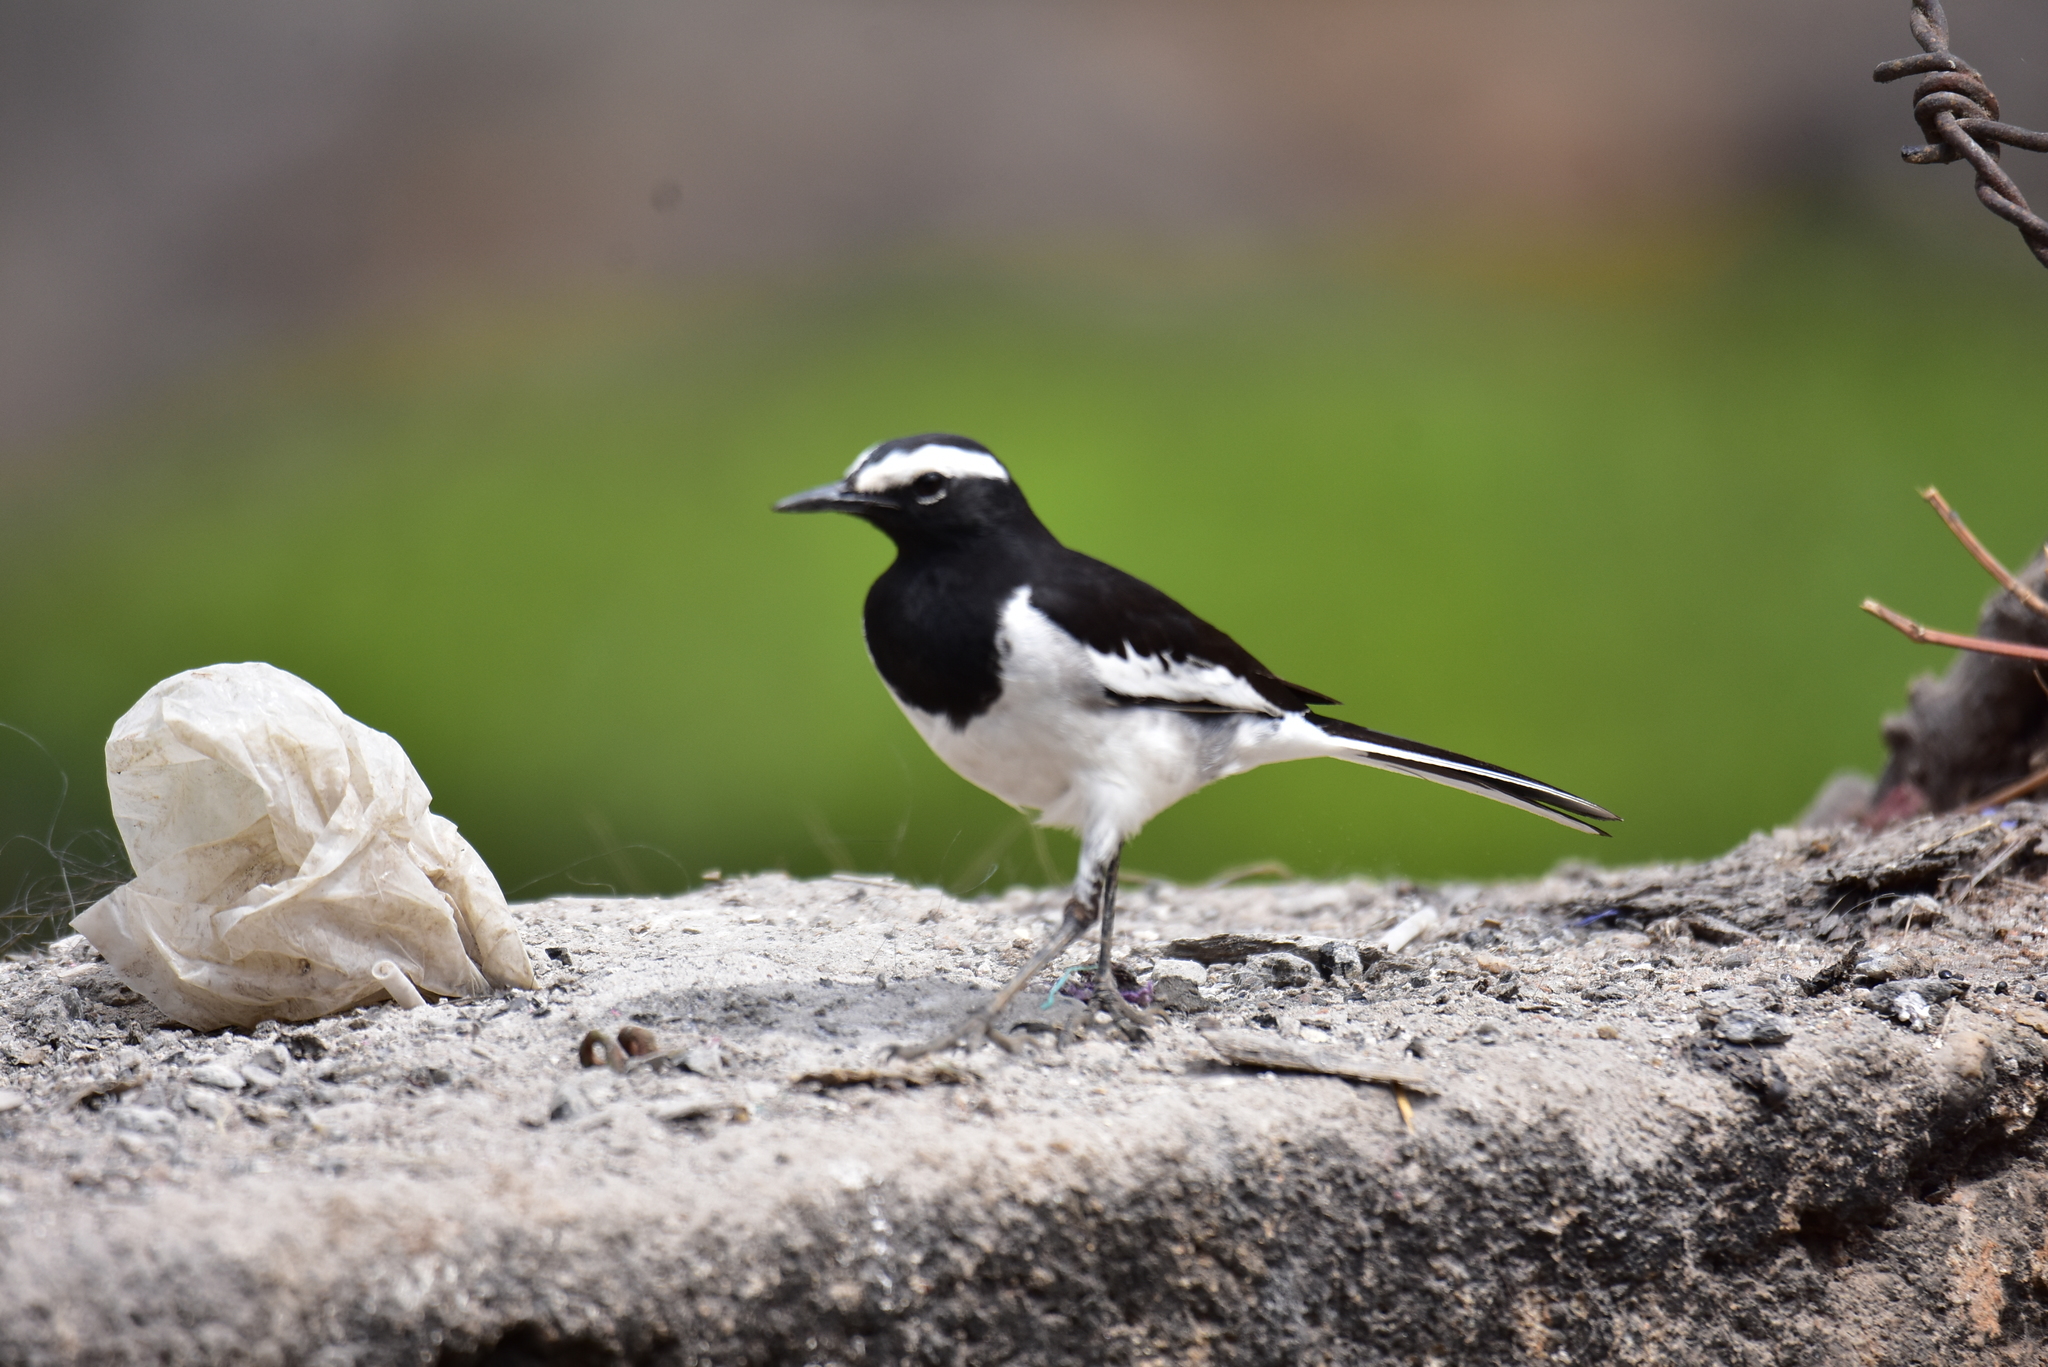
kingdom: Animalia
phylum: Chordata
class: Aves
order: Passeriformes
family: Motacillidae
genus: Motacilla
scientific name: Motacilla maderaspatensis
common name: White-browed wagtail
